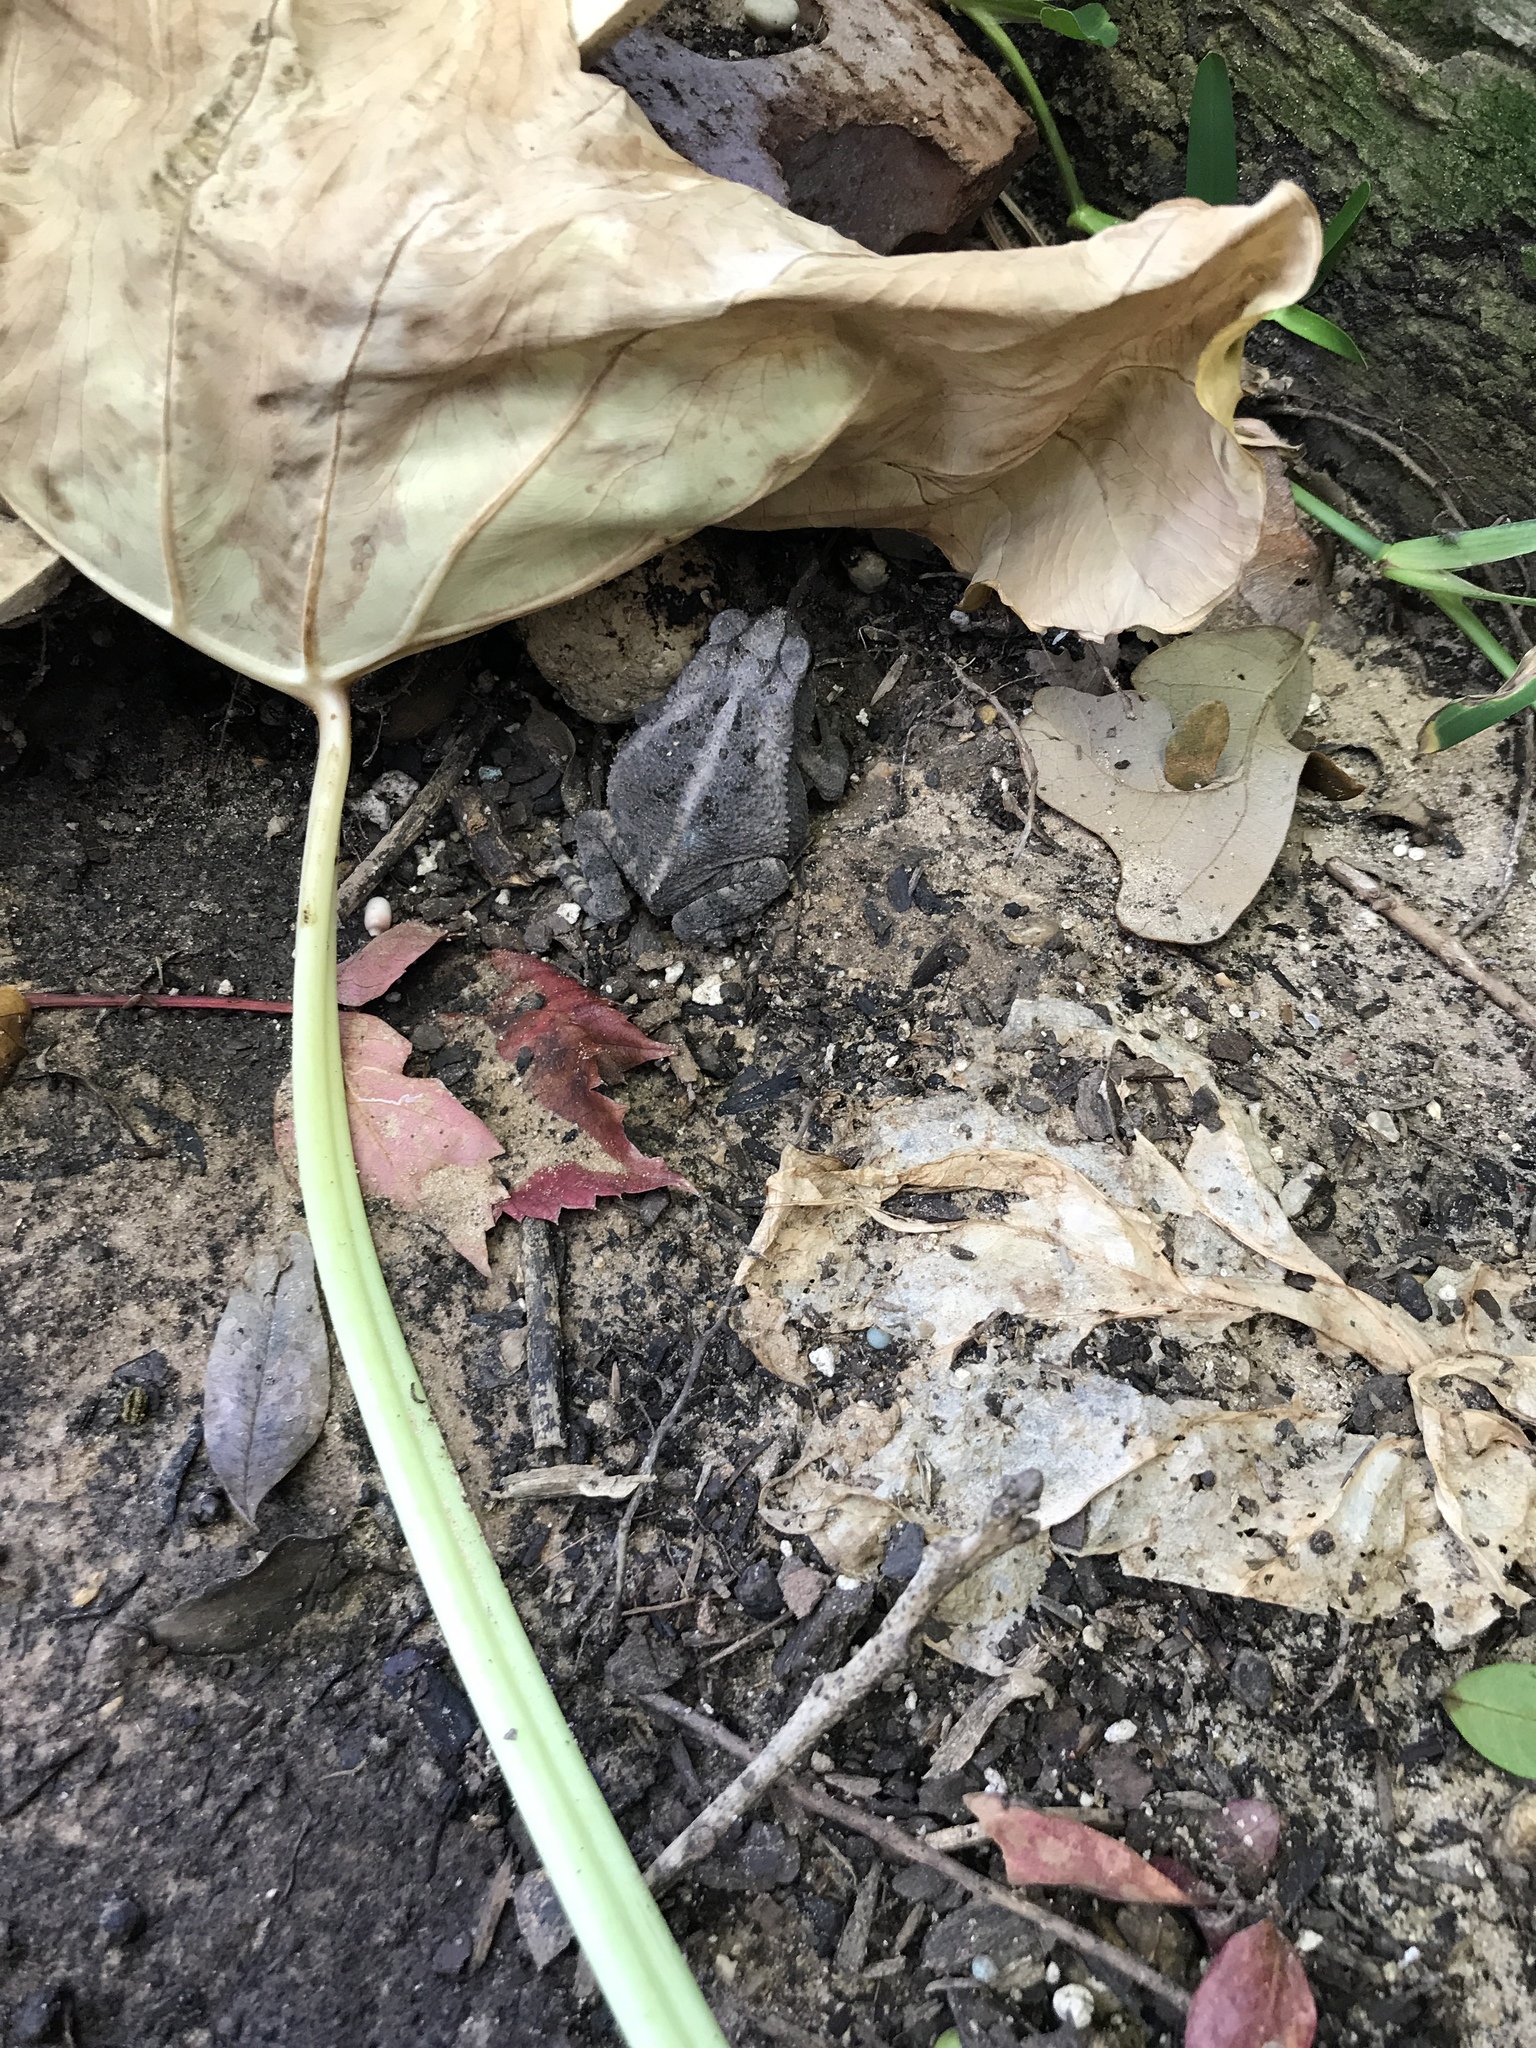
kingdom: Animalia
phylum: Chordata
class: Amphibia
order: Anura
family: Bufonidae
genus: Incilius
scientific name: Incilius nebulifer
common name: Gulf coast toad
